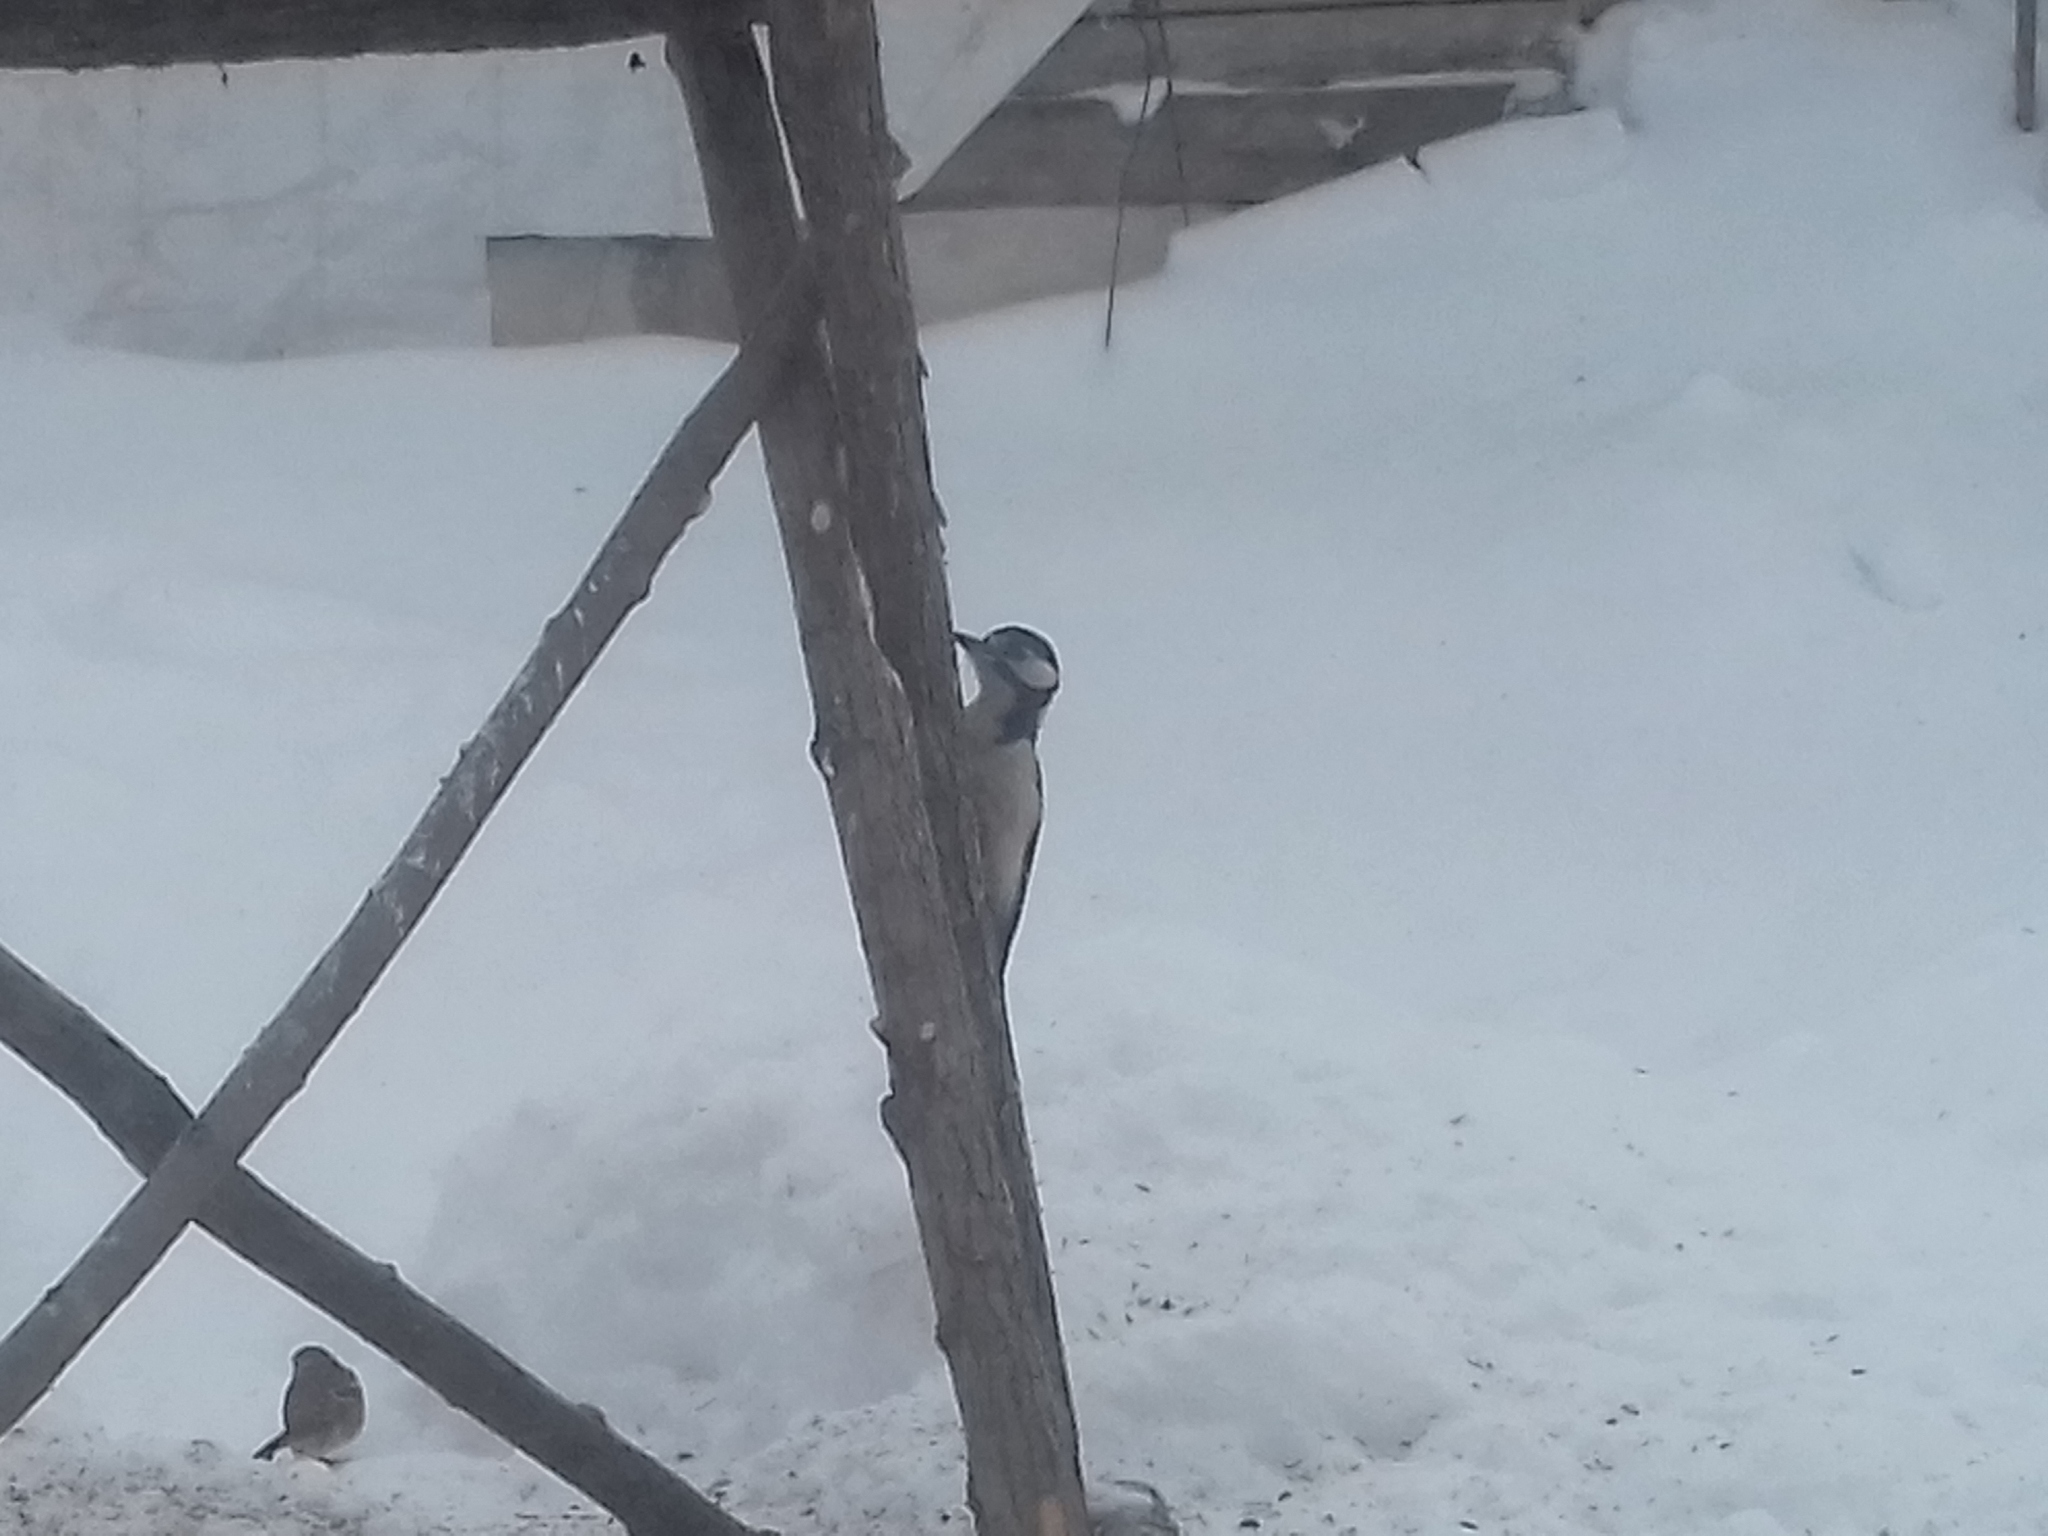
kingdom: Animalia
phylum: Chordata
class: Aves
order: Piciformes
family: Picidae
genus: Dendrocopos
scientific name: Dendrocopos major
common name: Great spotted woodpecker
